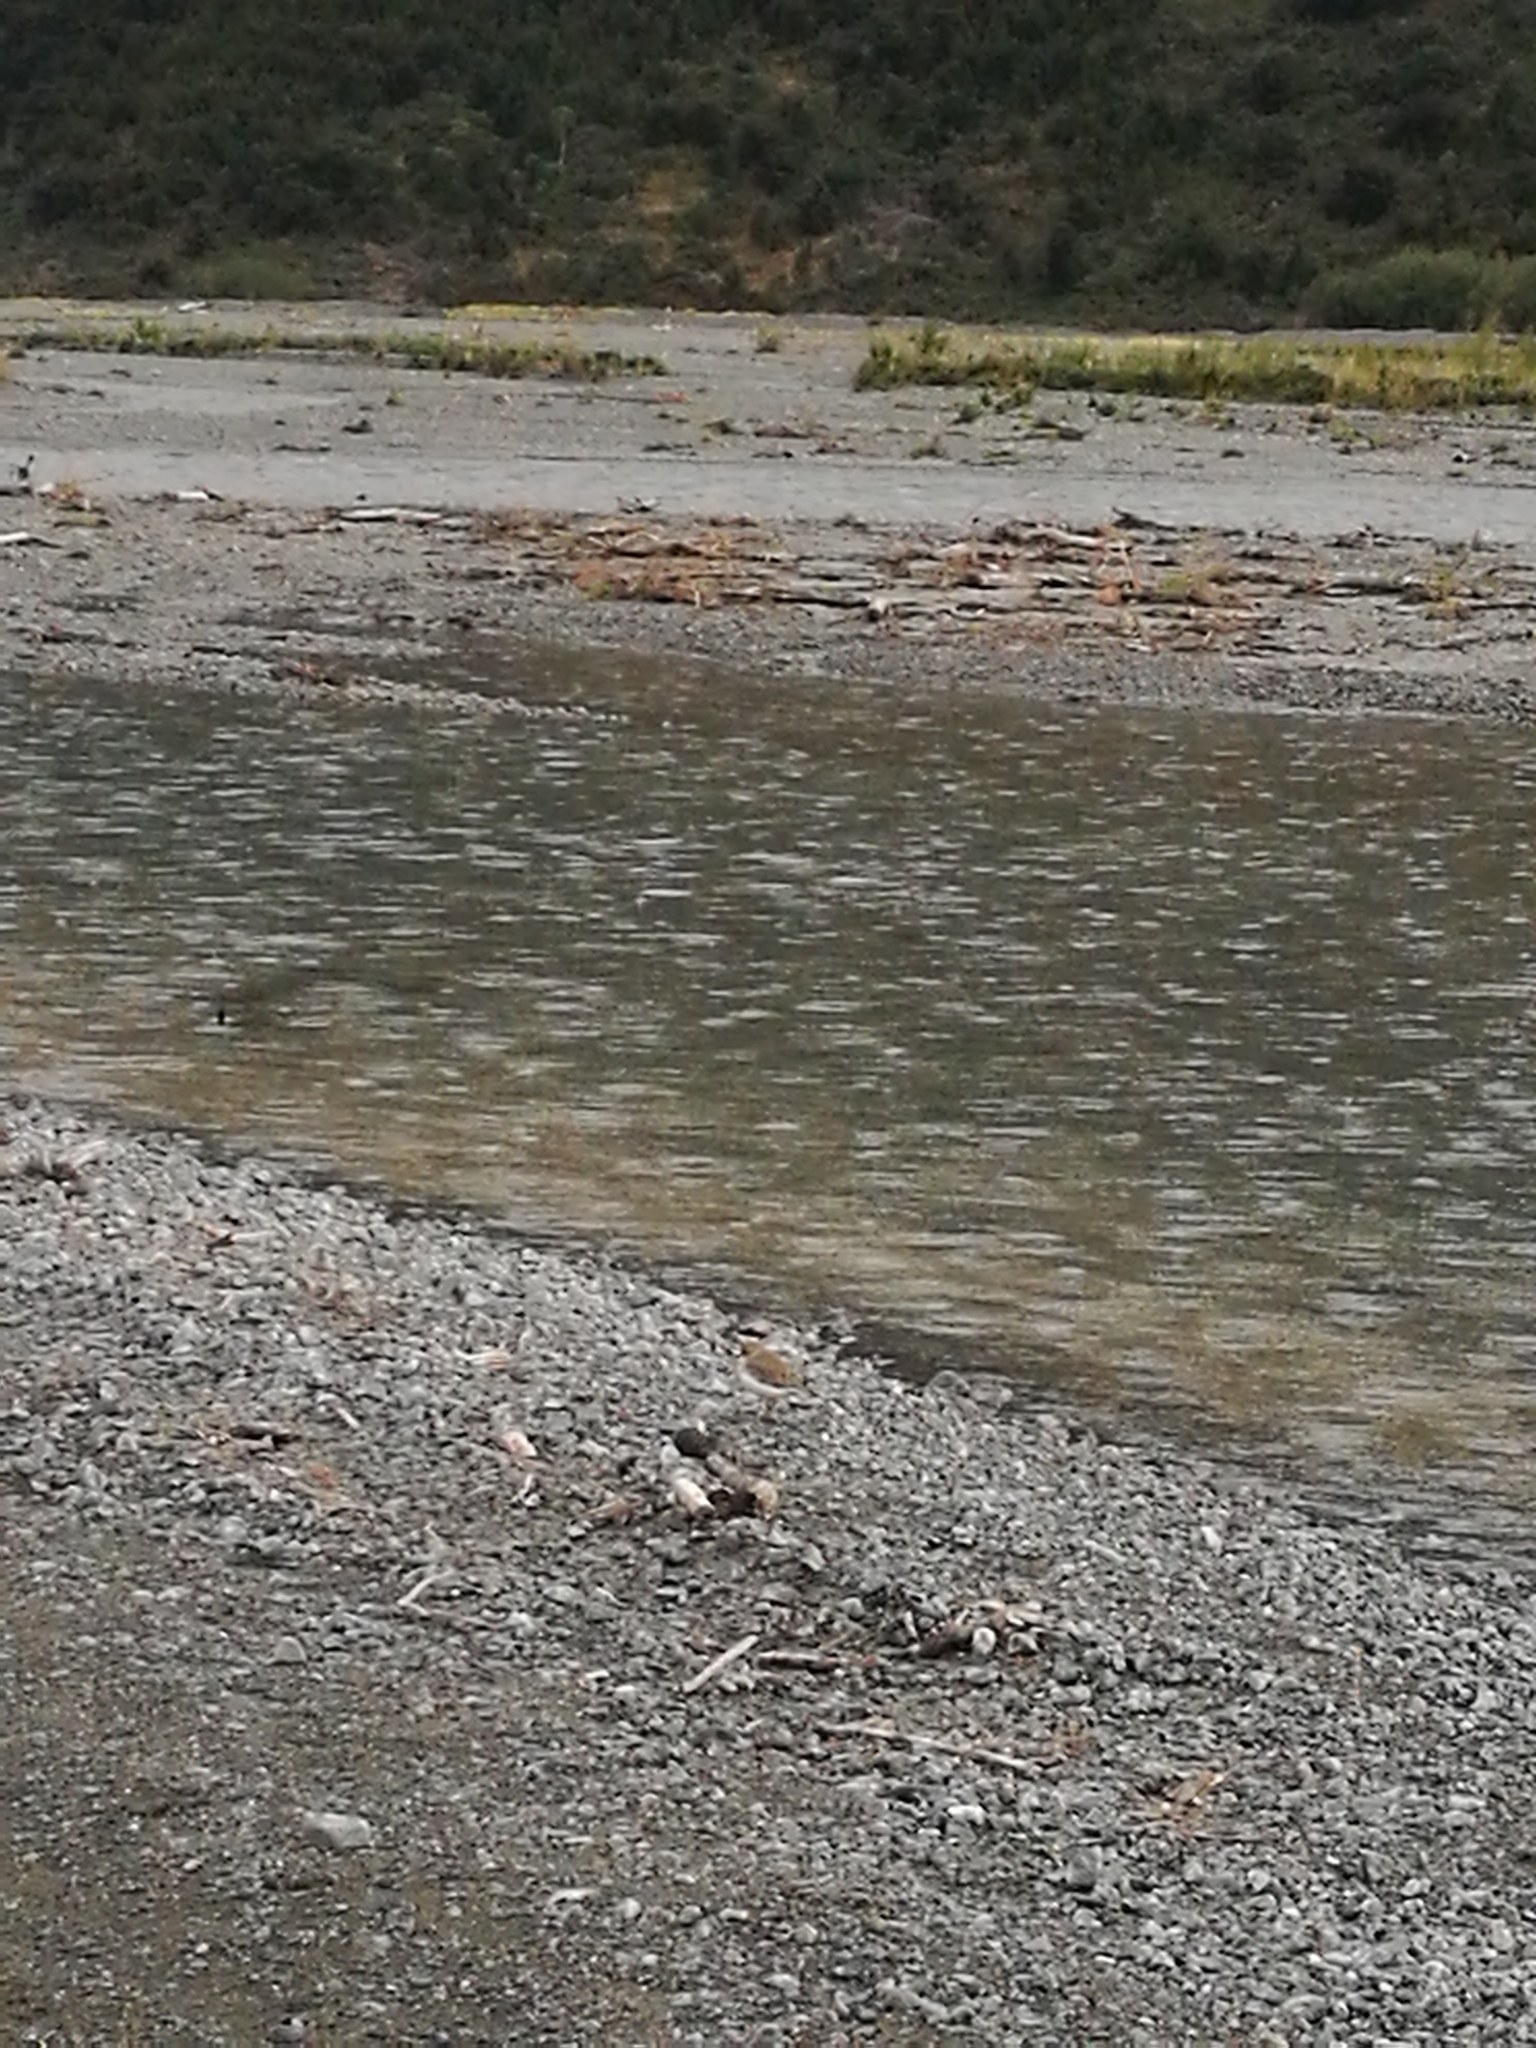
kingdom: Animalia
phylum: Chordata
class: Aves
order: Charadriiformes
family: Charadriidae
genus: Anarhynchus
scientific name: Anarhynchus
